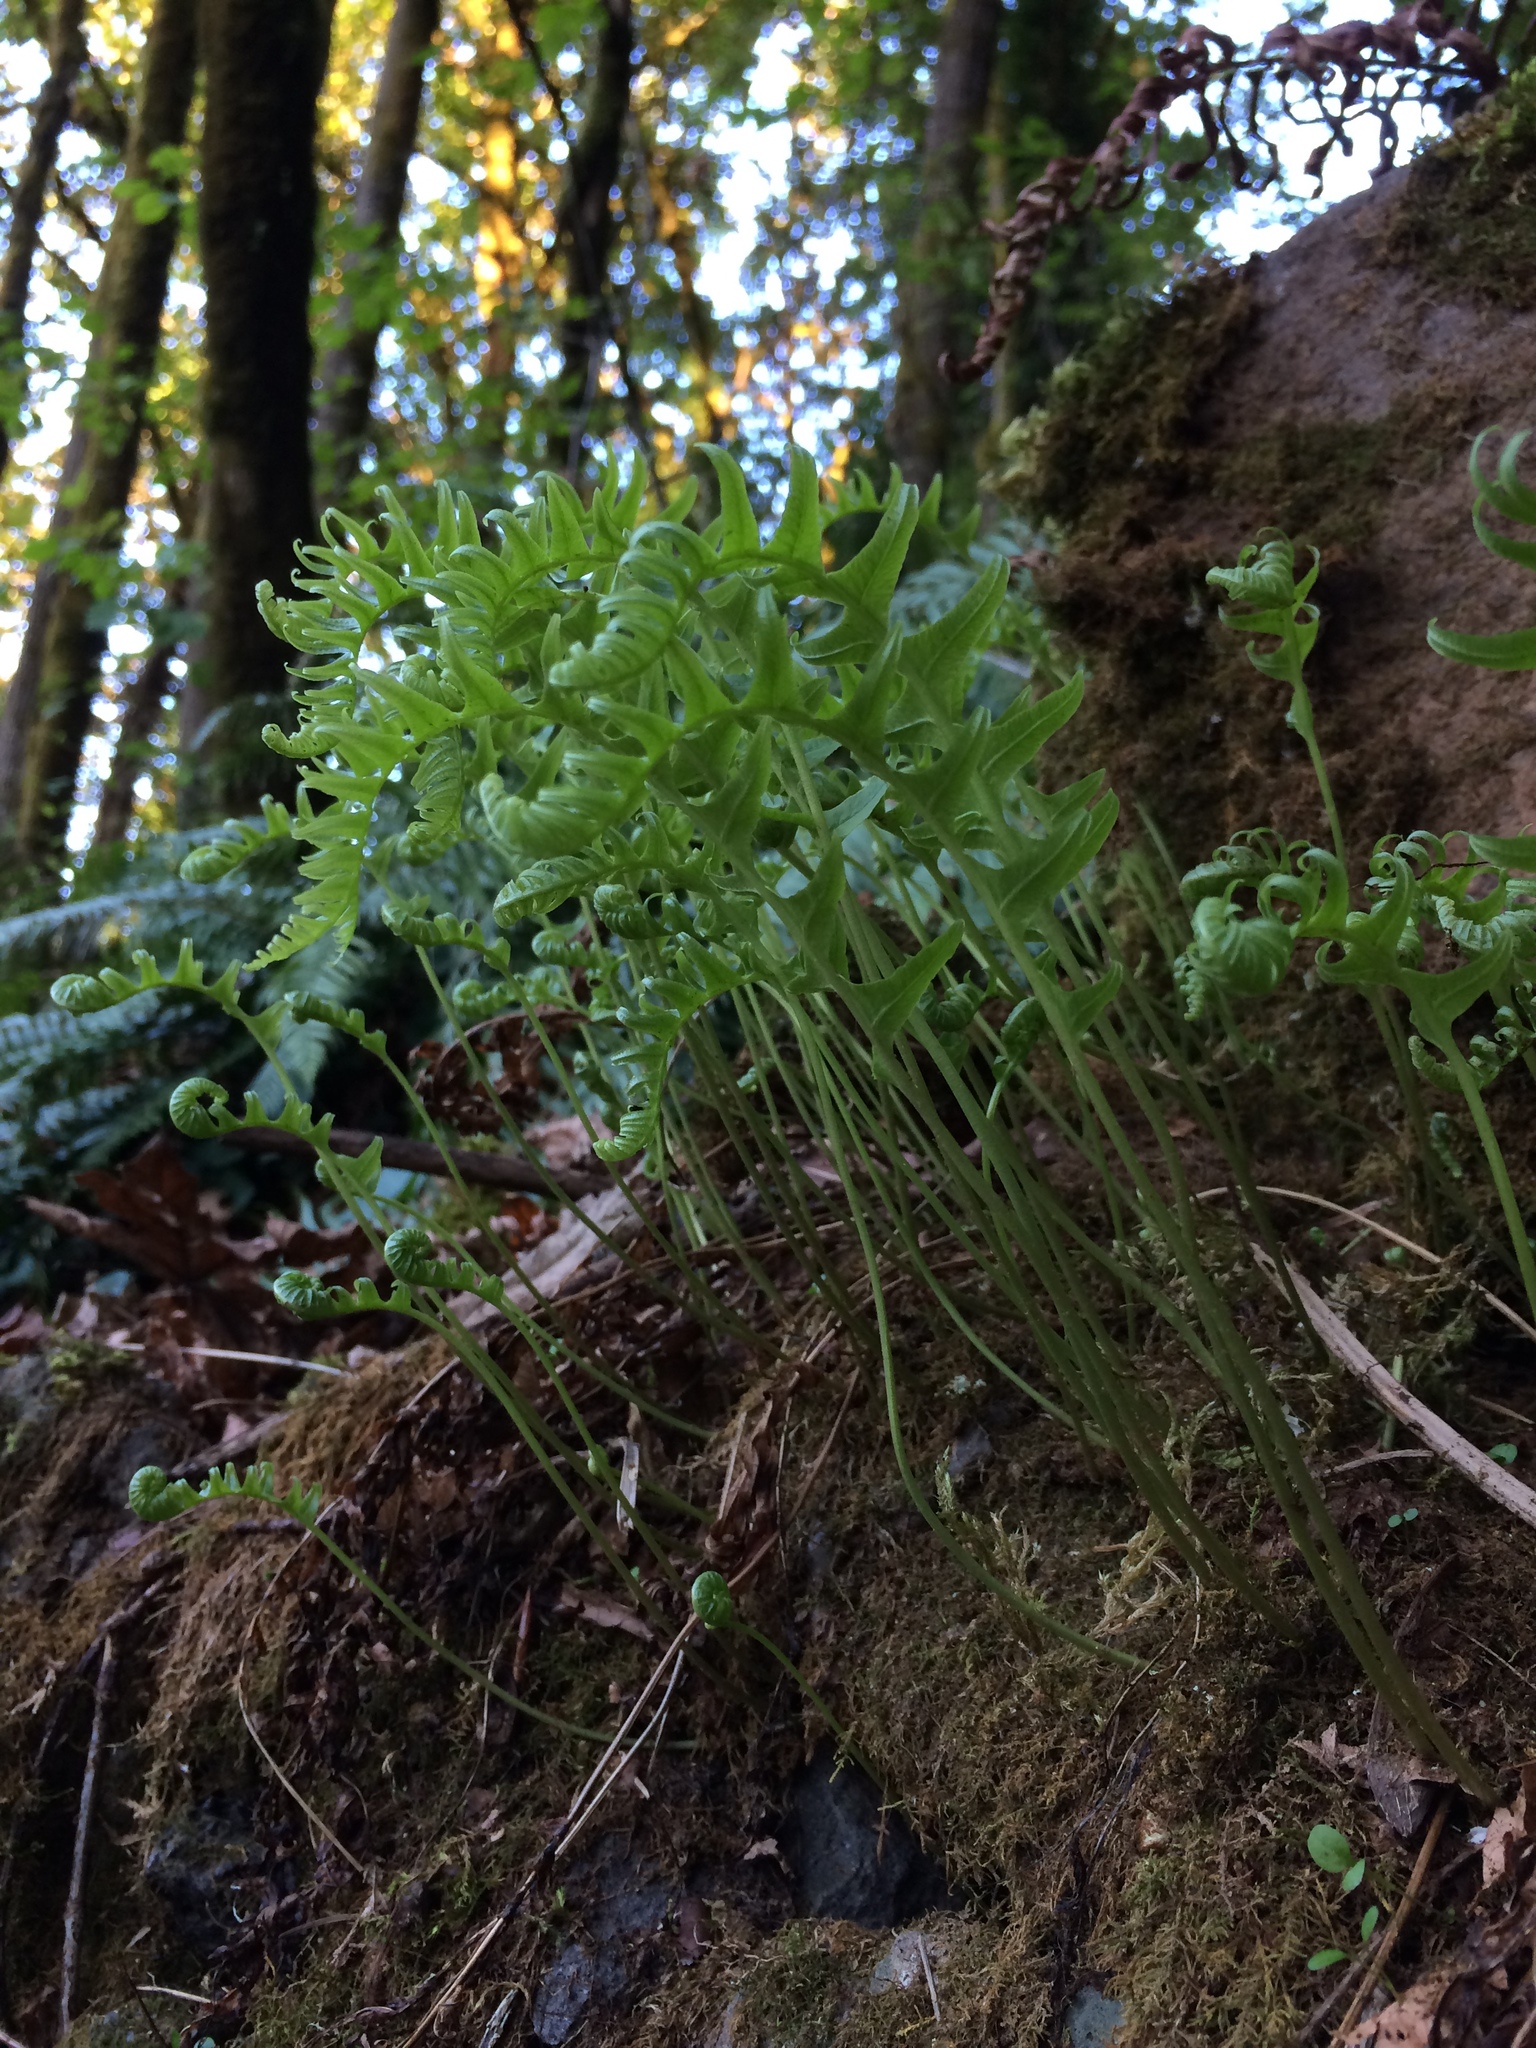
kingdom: Plantae
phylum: Tracheophyta
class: Polypodiopsida
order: Polypodiales
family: Polypodiaceae
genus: Polypodium
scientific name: Polypodium glycyrrhiza
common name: Licorice fern
